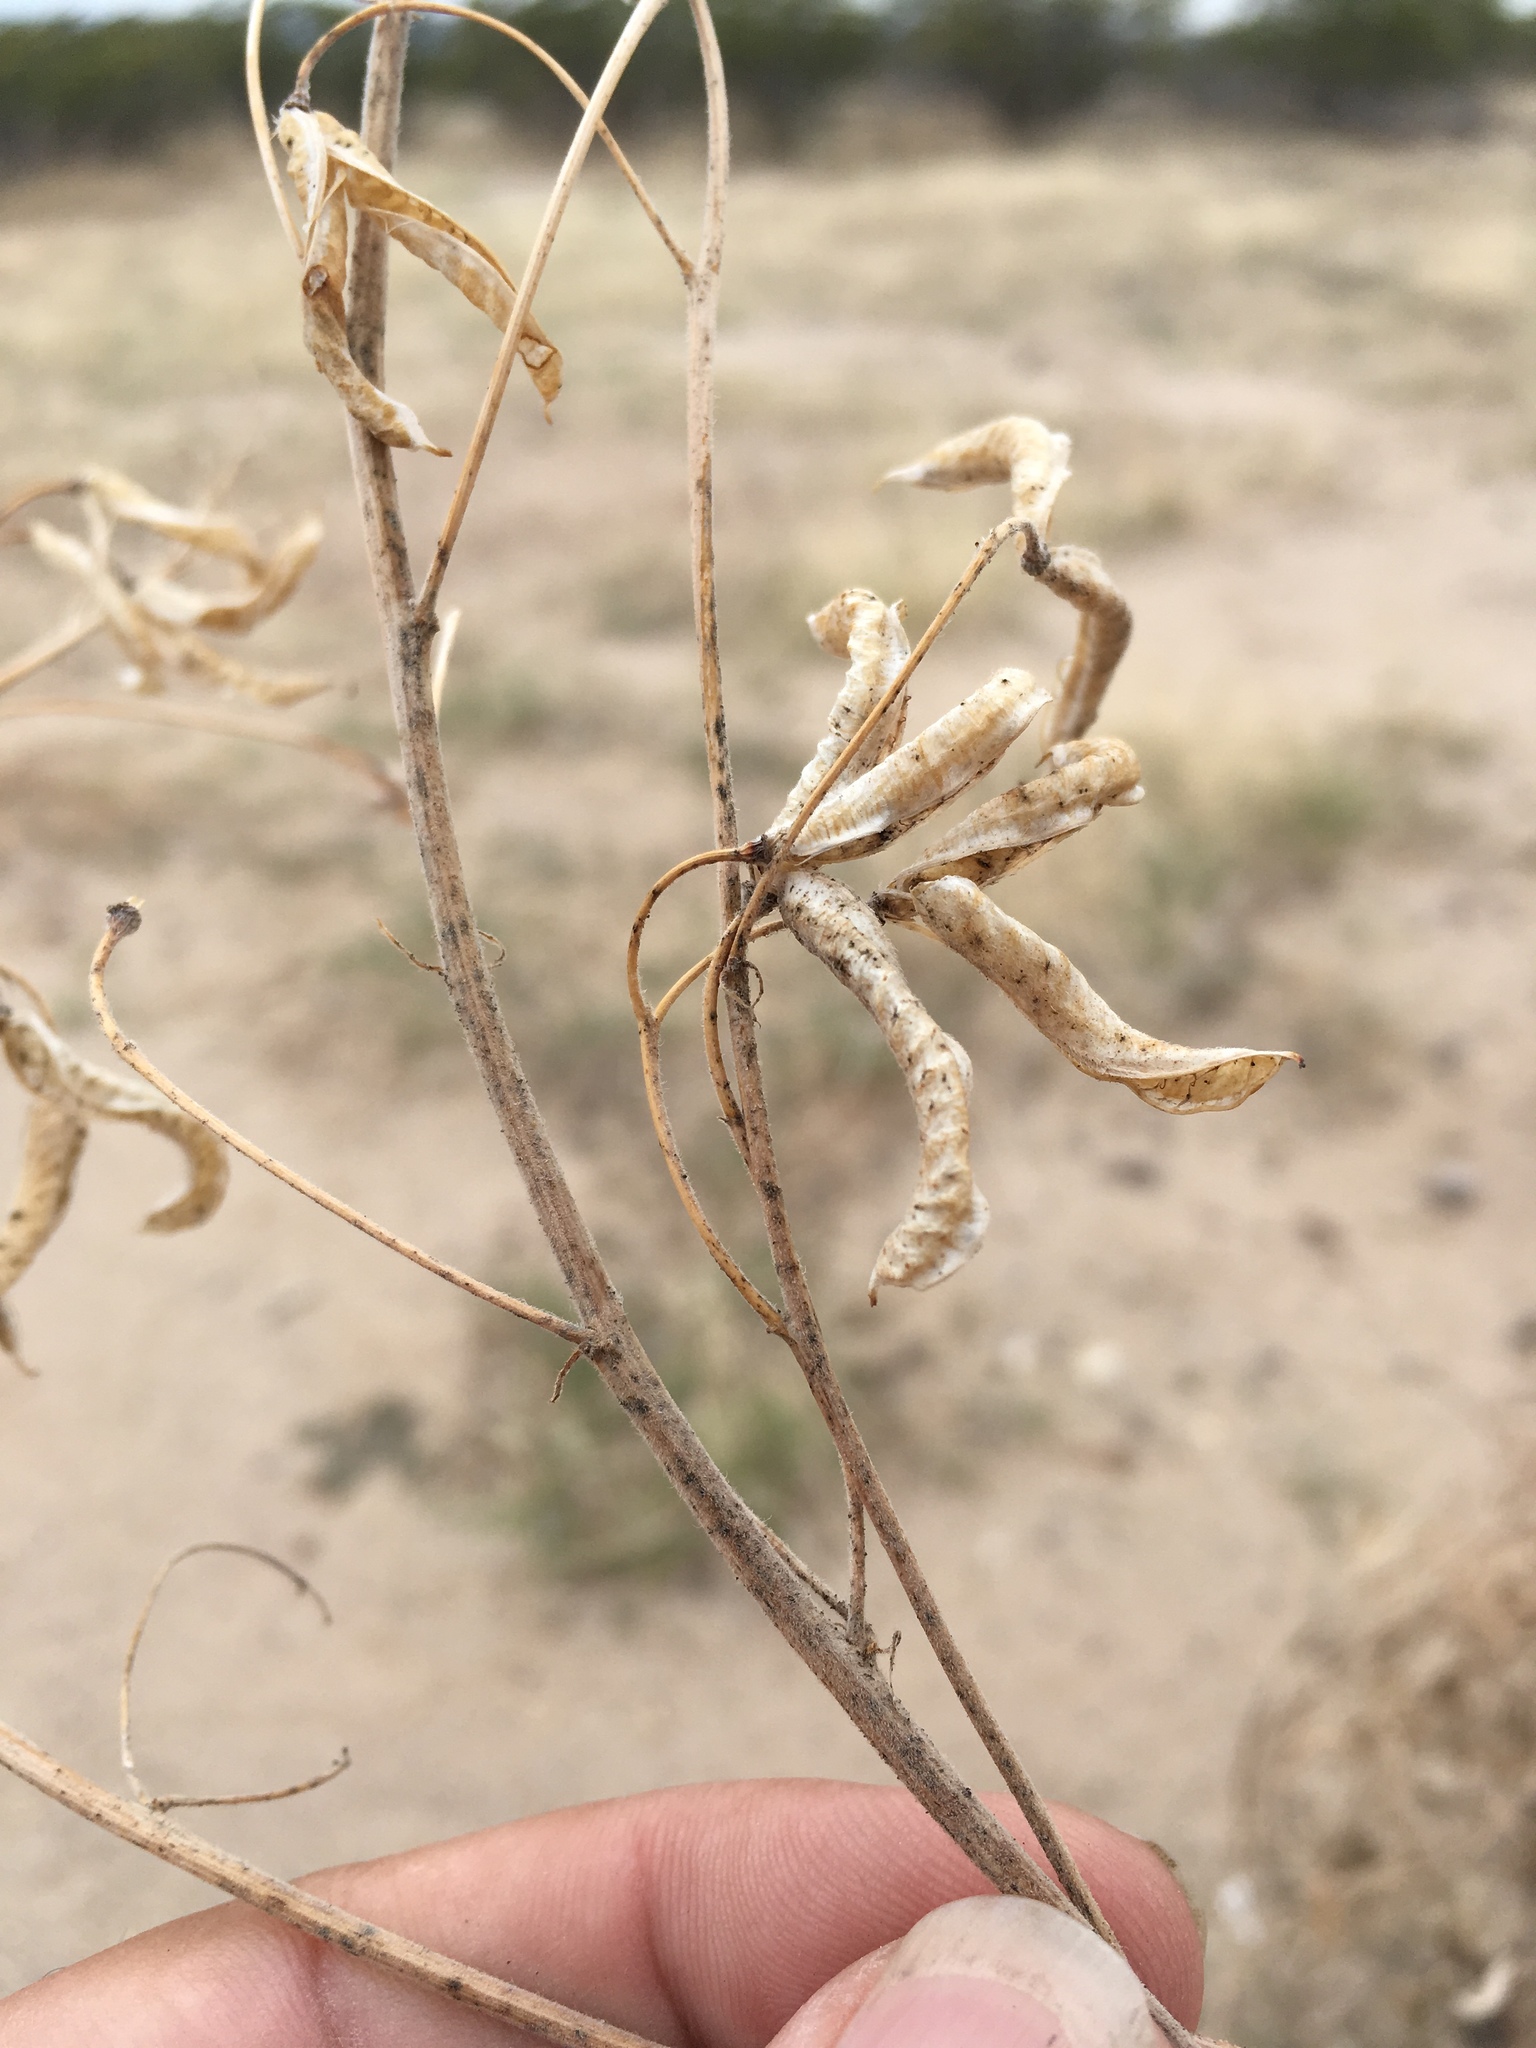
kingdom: Plantae
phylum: Tracheophyta
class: Magnoliopsida
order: Fabales
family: Fabaceae
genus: Senna
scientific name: Senna bauhinioides
